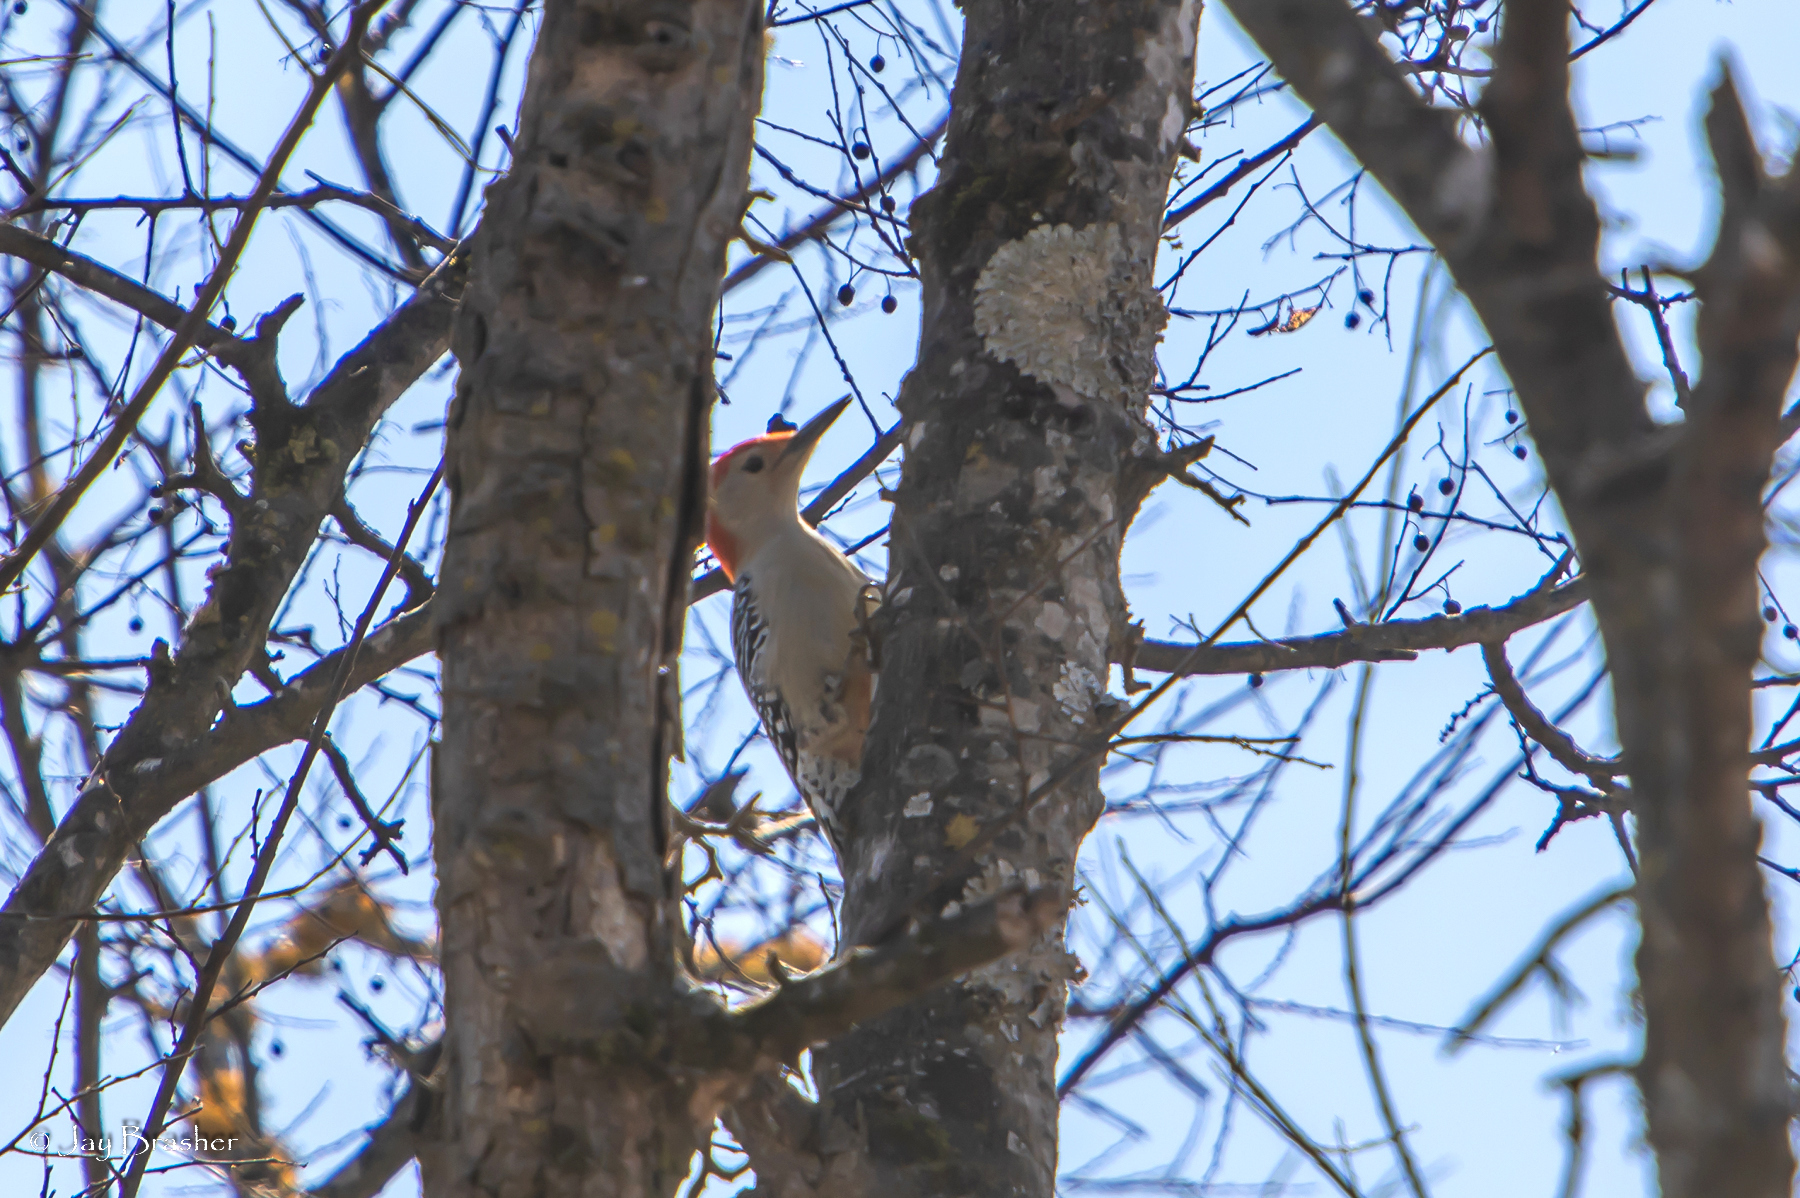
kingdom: Animalia
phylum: Chordata
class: Aves
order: Piciformes
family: Picidae
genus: Melanerpes
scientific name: Melanerpes carolinus
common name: Red-bellied woodpecker
